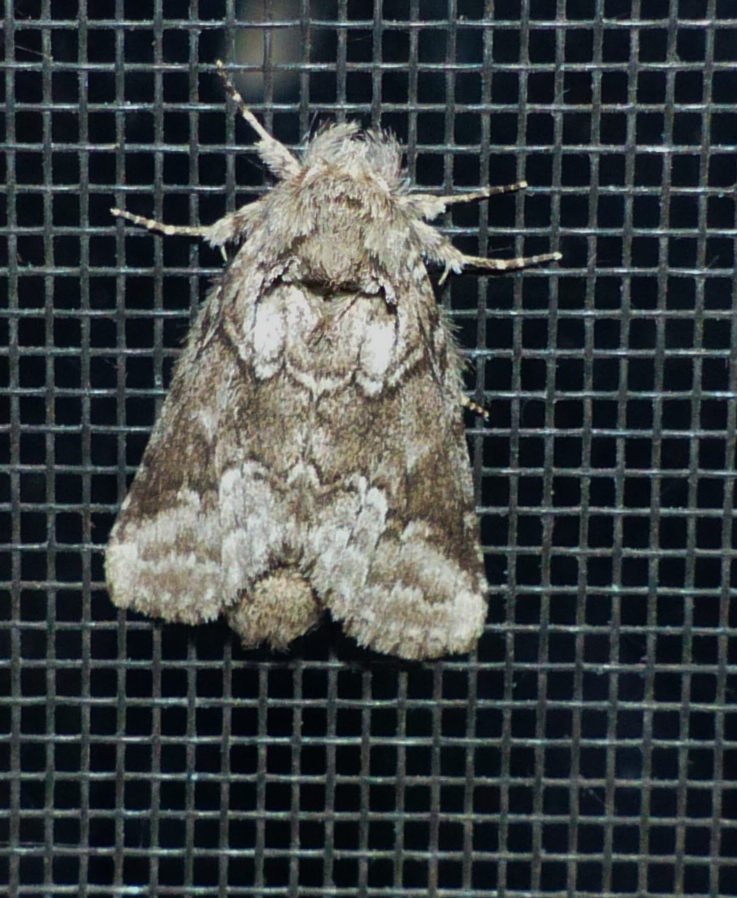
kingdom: Animalia
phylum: Arthropoda
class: Insecta
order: Lepidoptera
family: Notodontidae
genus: Lochmaeus
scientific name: Lochmaeus bilineata
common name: Double-lined prominent
